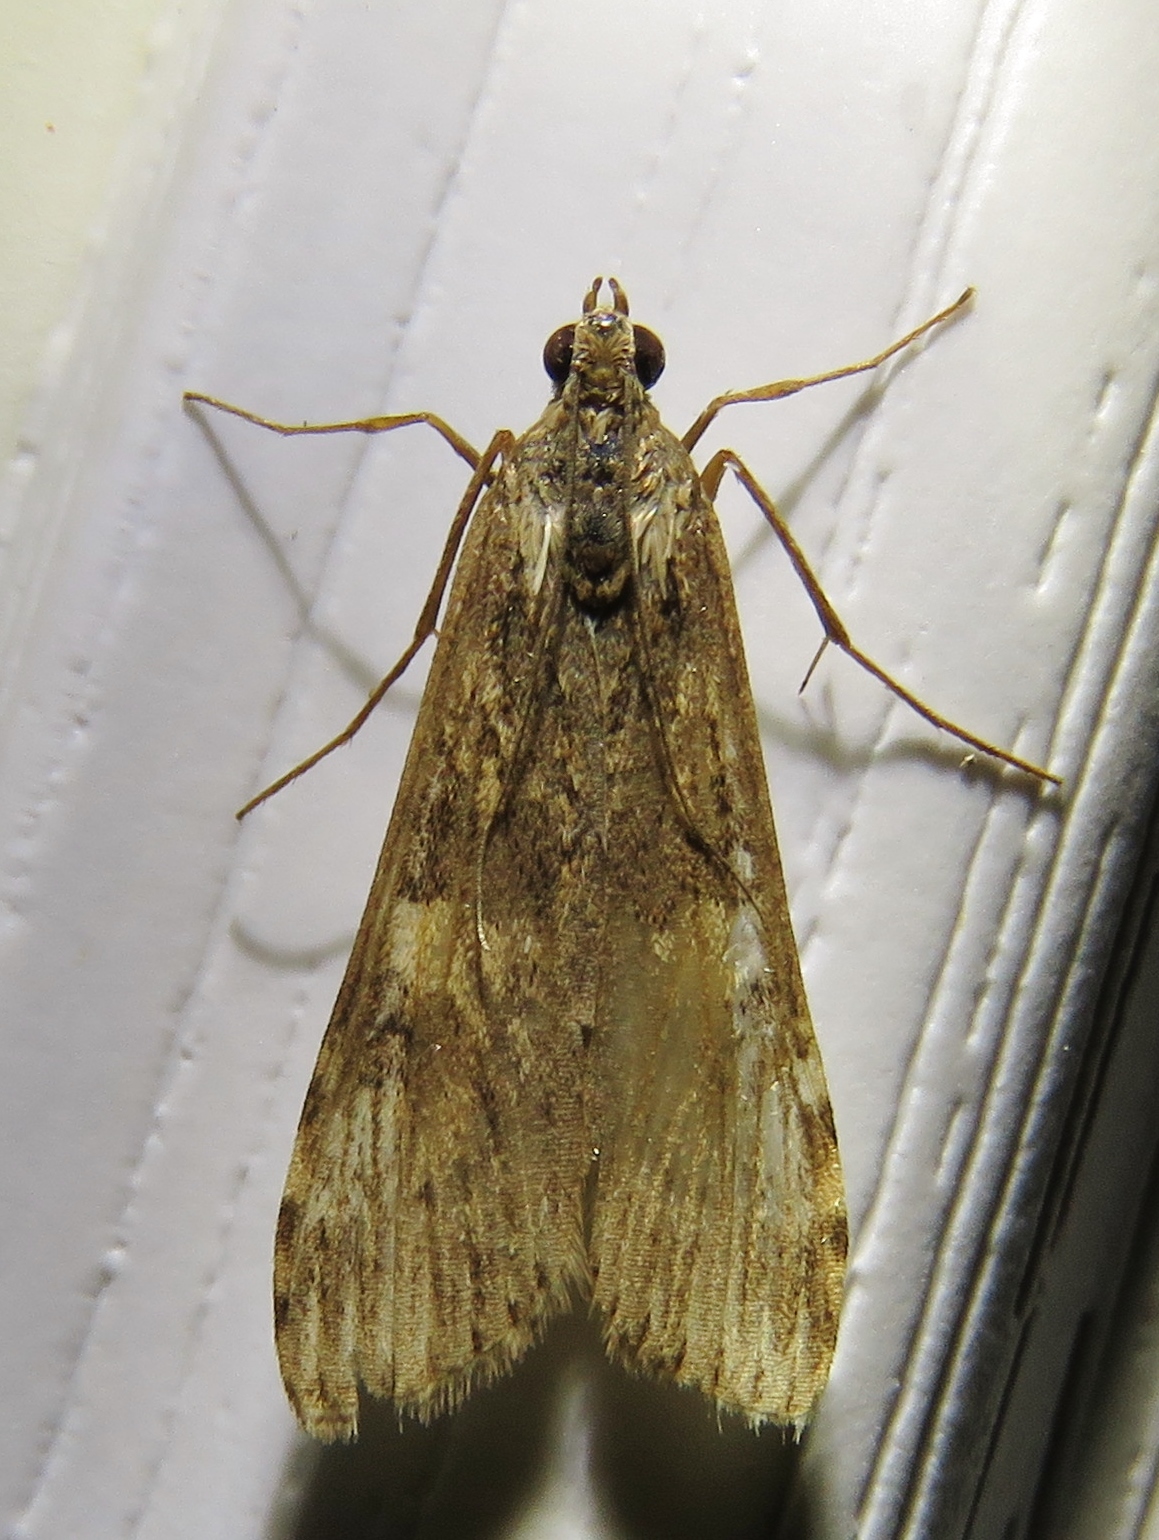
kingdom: Animalia
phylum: Arthropoda
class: Insecta
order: Lepidoptera
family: Crambidae
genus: Nomophila
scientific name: Nomophila nearctica
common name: American rush veneer
